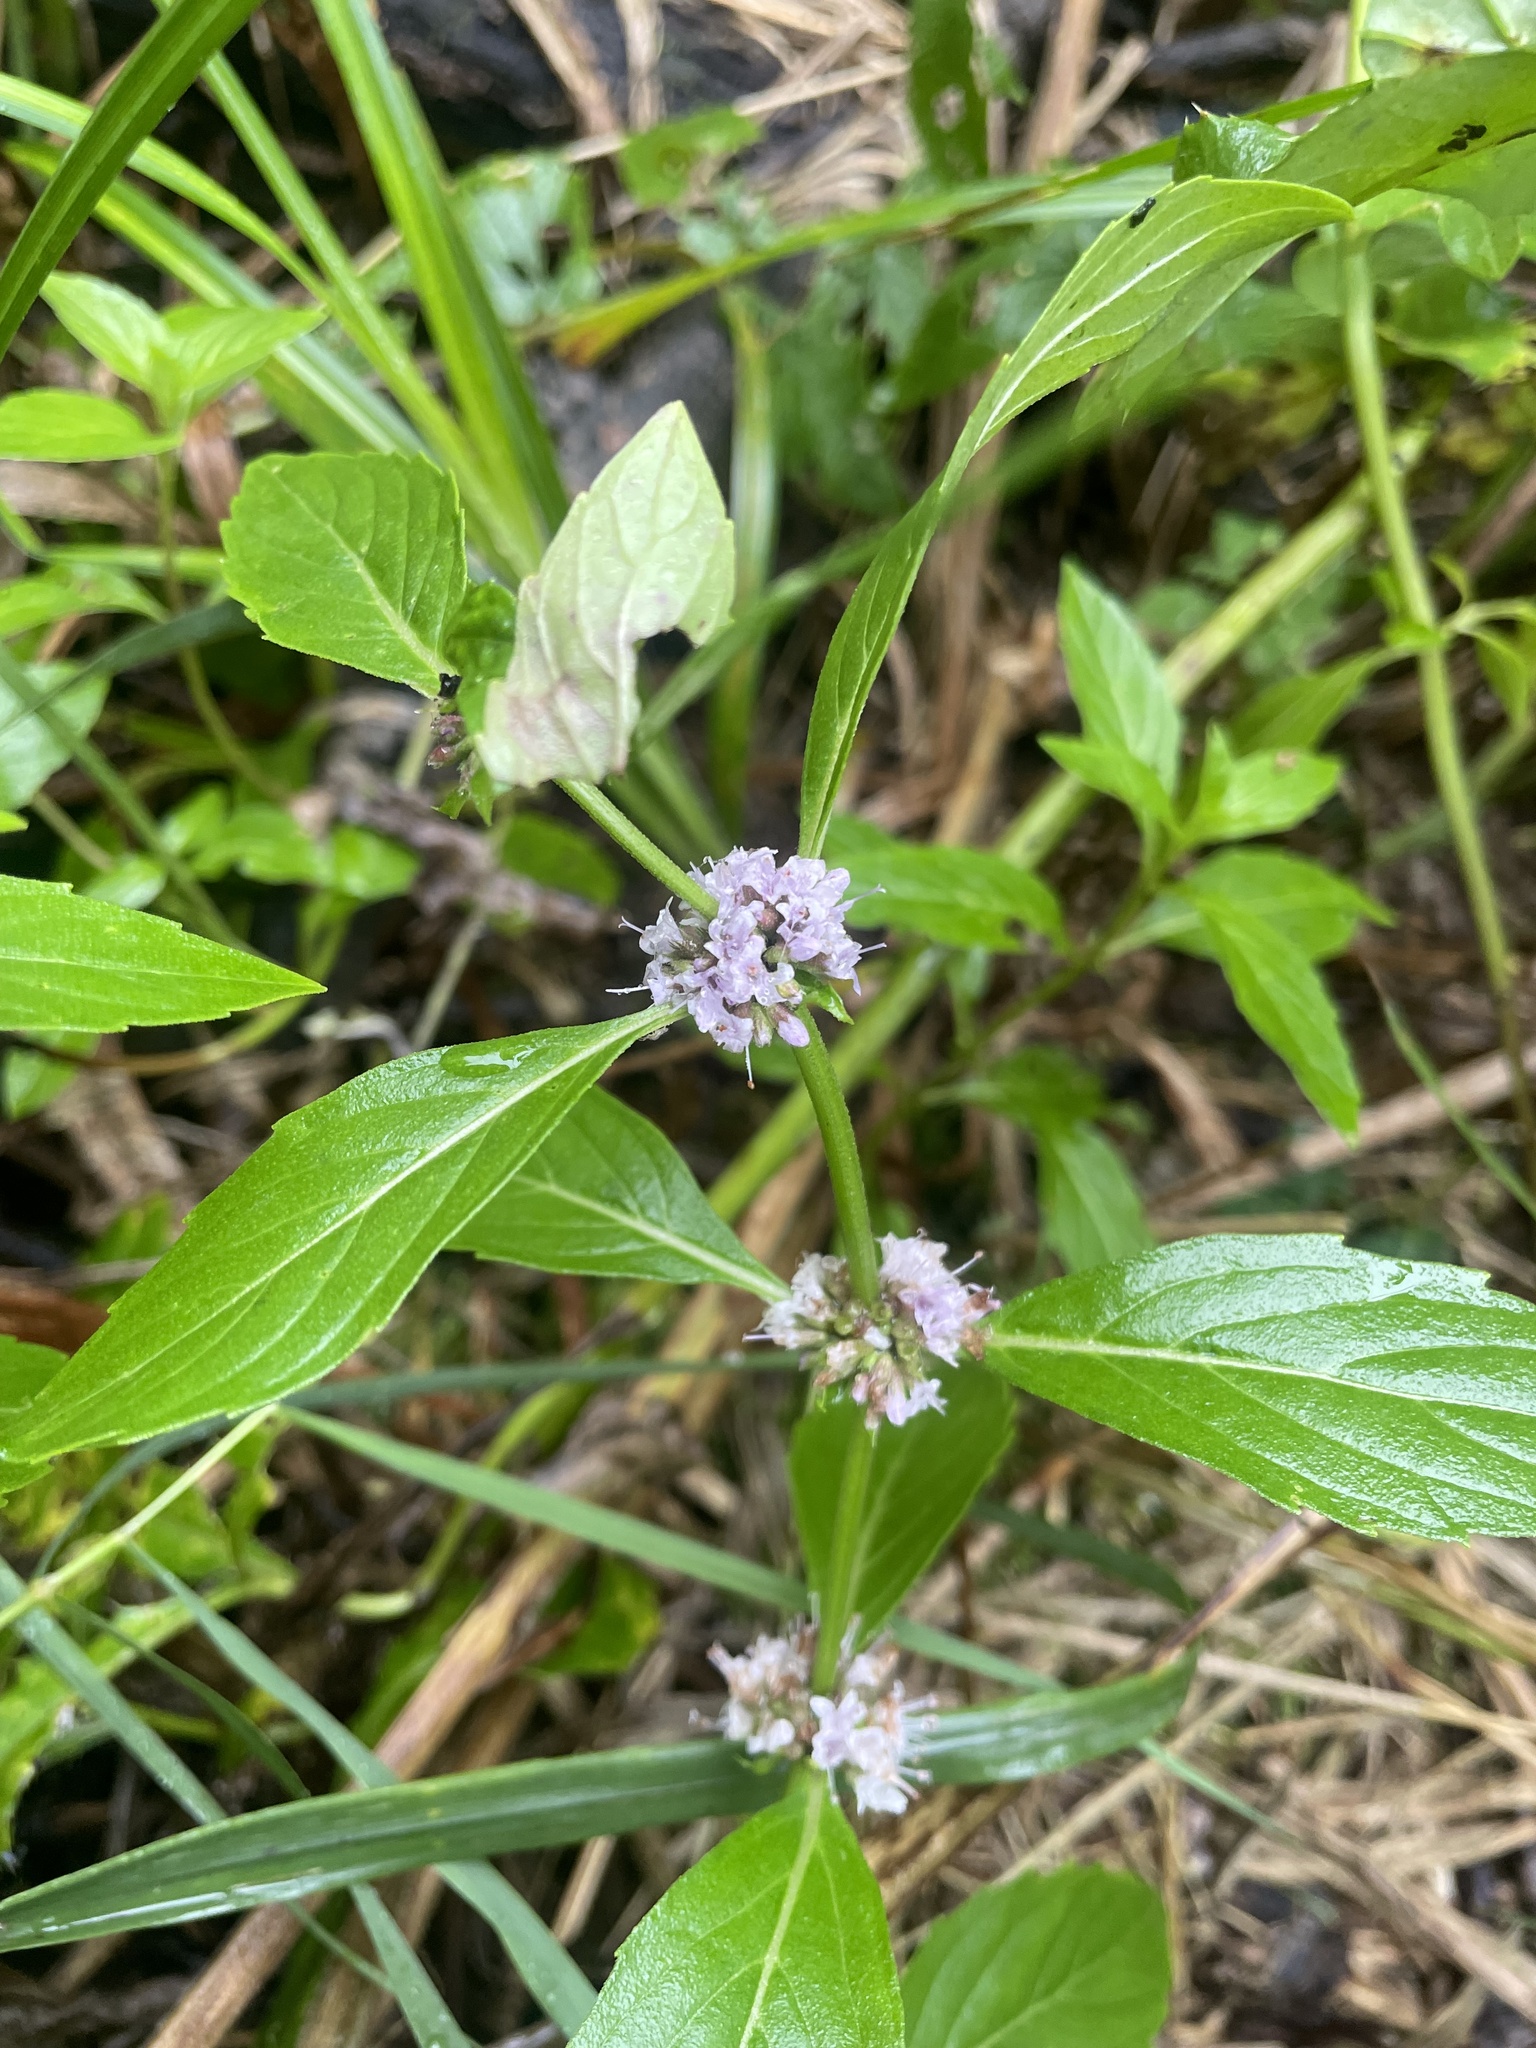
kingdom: Plantae
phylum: Tracheophyta
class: Magnoliopsida
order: Lamiales
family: Lamiaceae
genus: Mentha
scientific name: Mentha canadensis
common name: American corn mint
